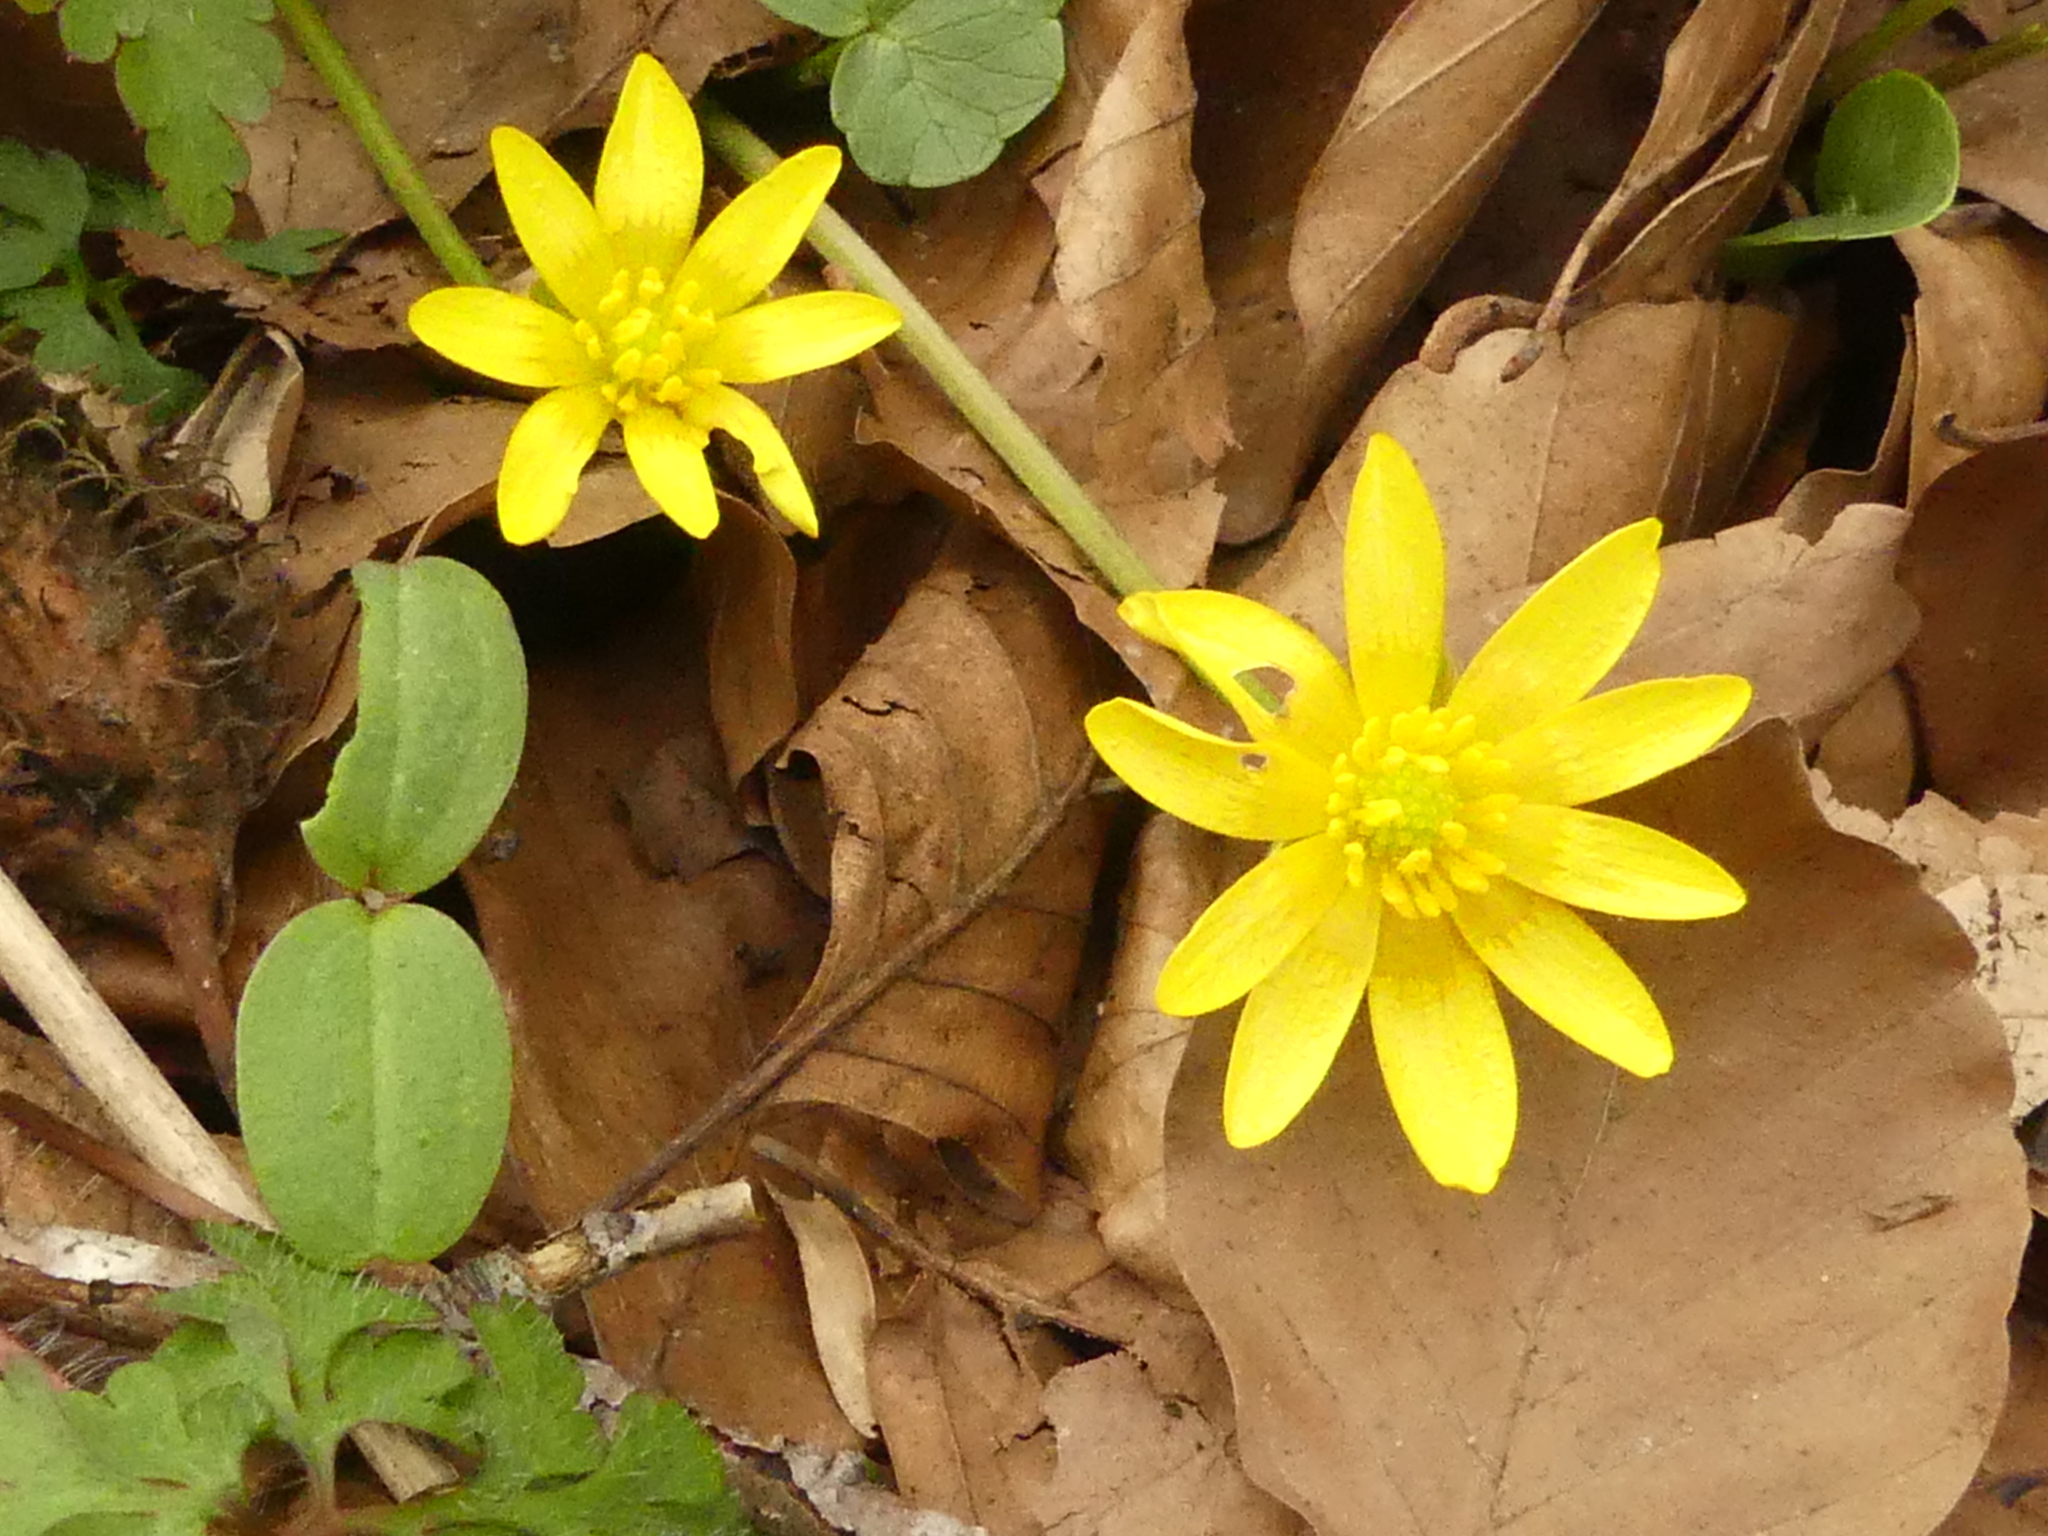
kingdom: Plantae
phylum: Tracheophyta
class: Magnoliopsida
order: Ranunculales
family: Ranunculaceae
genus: Ficaria
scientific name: Ficaria verna
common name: Lesser celandine
